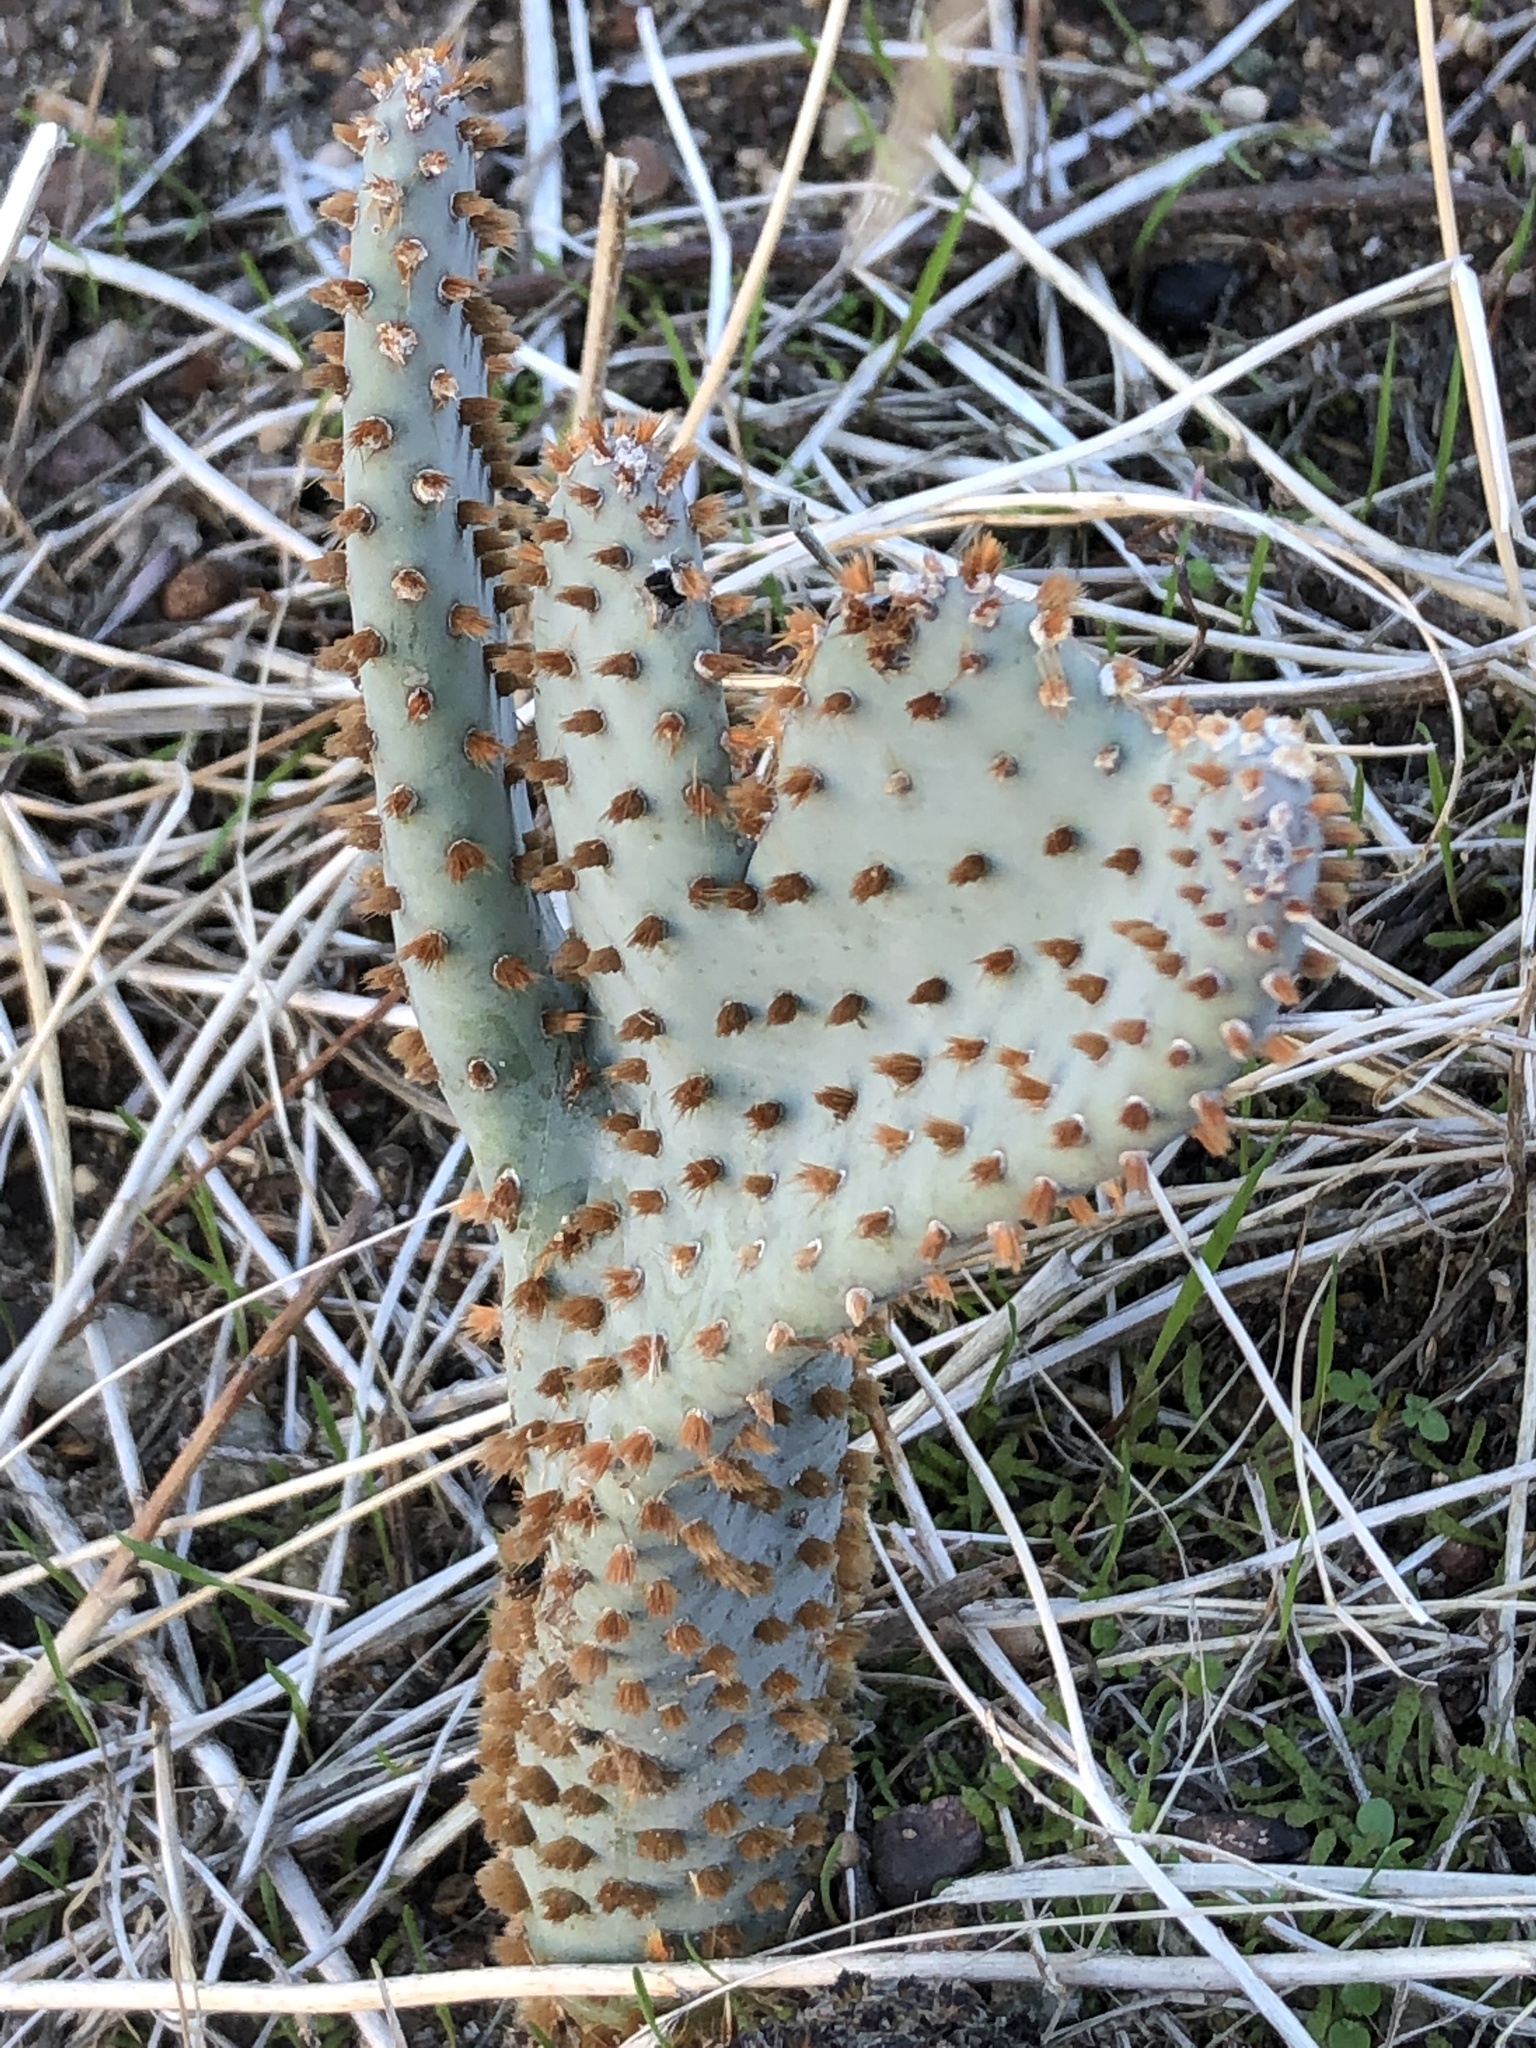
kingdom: Plantae
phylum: Tracheophyta
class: Magnoliopsida
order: Caryophyllales
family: Cactaceae
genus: Opuntia
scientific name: Opuntia basilaris
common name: Beavertail prickly-pear
